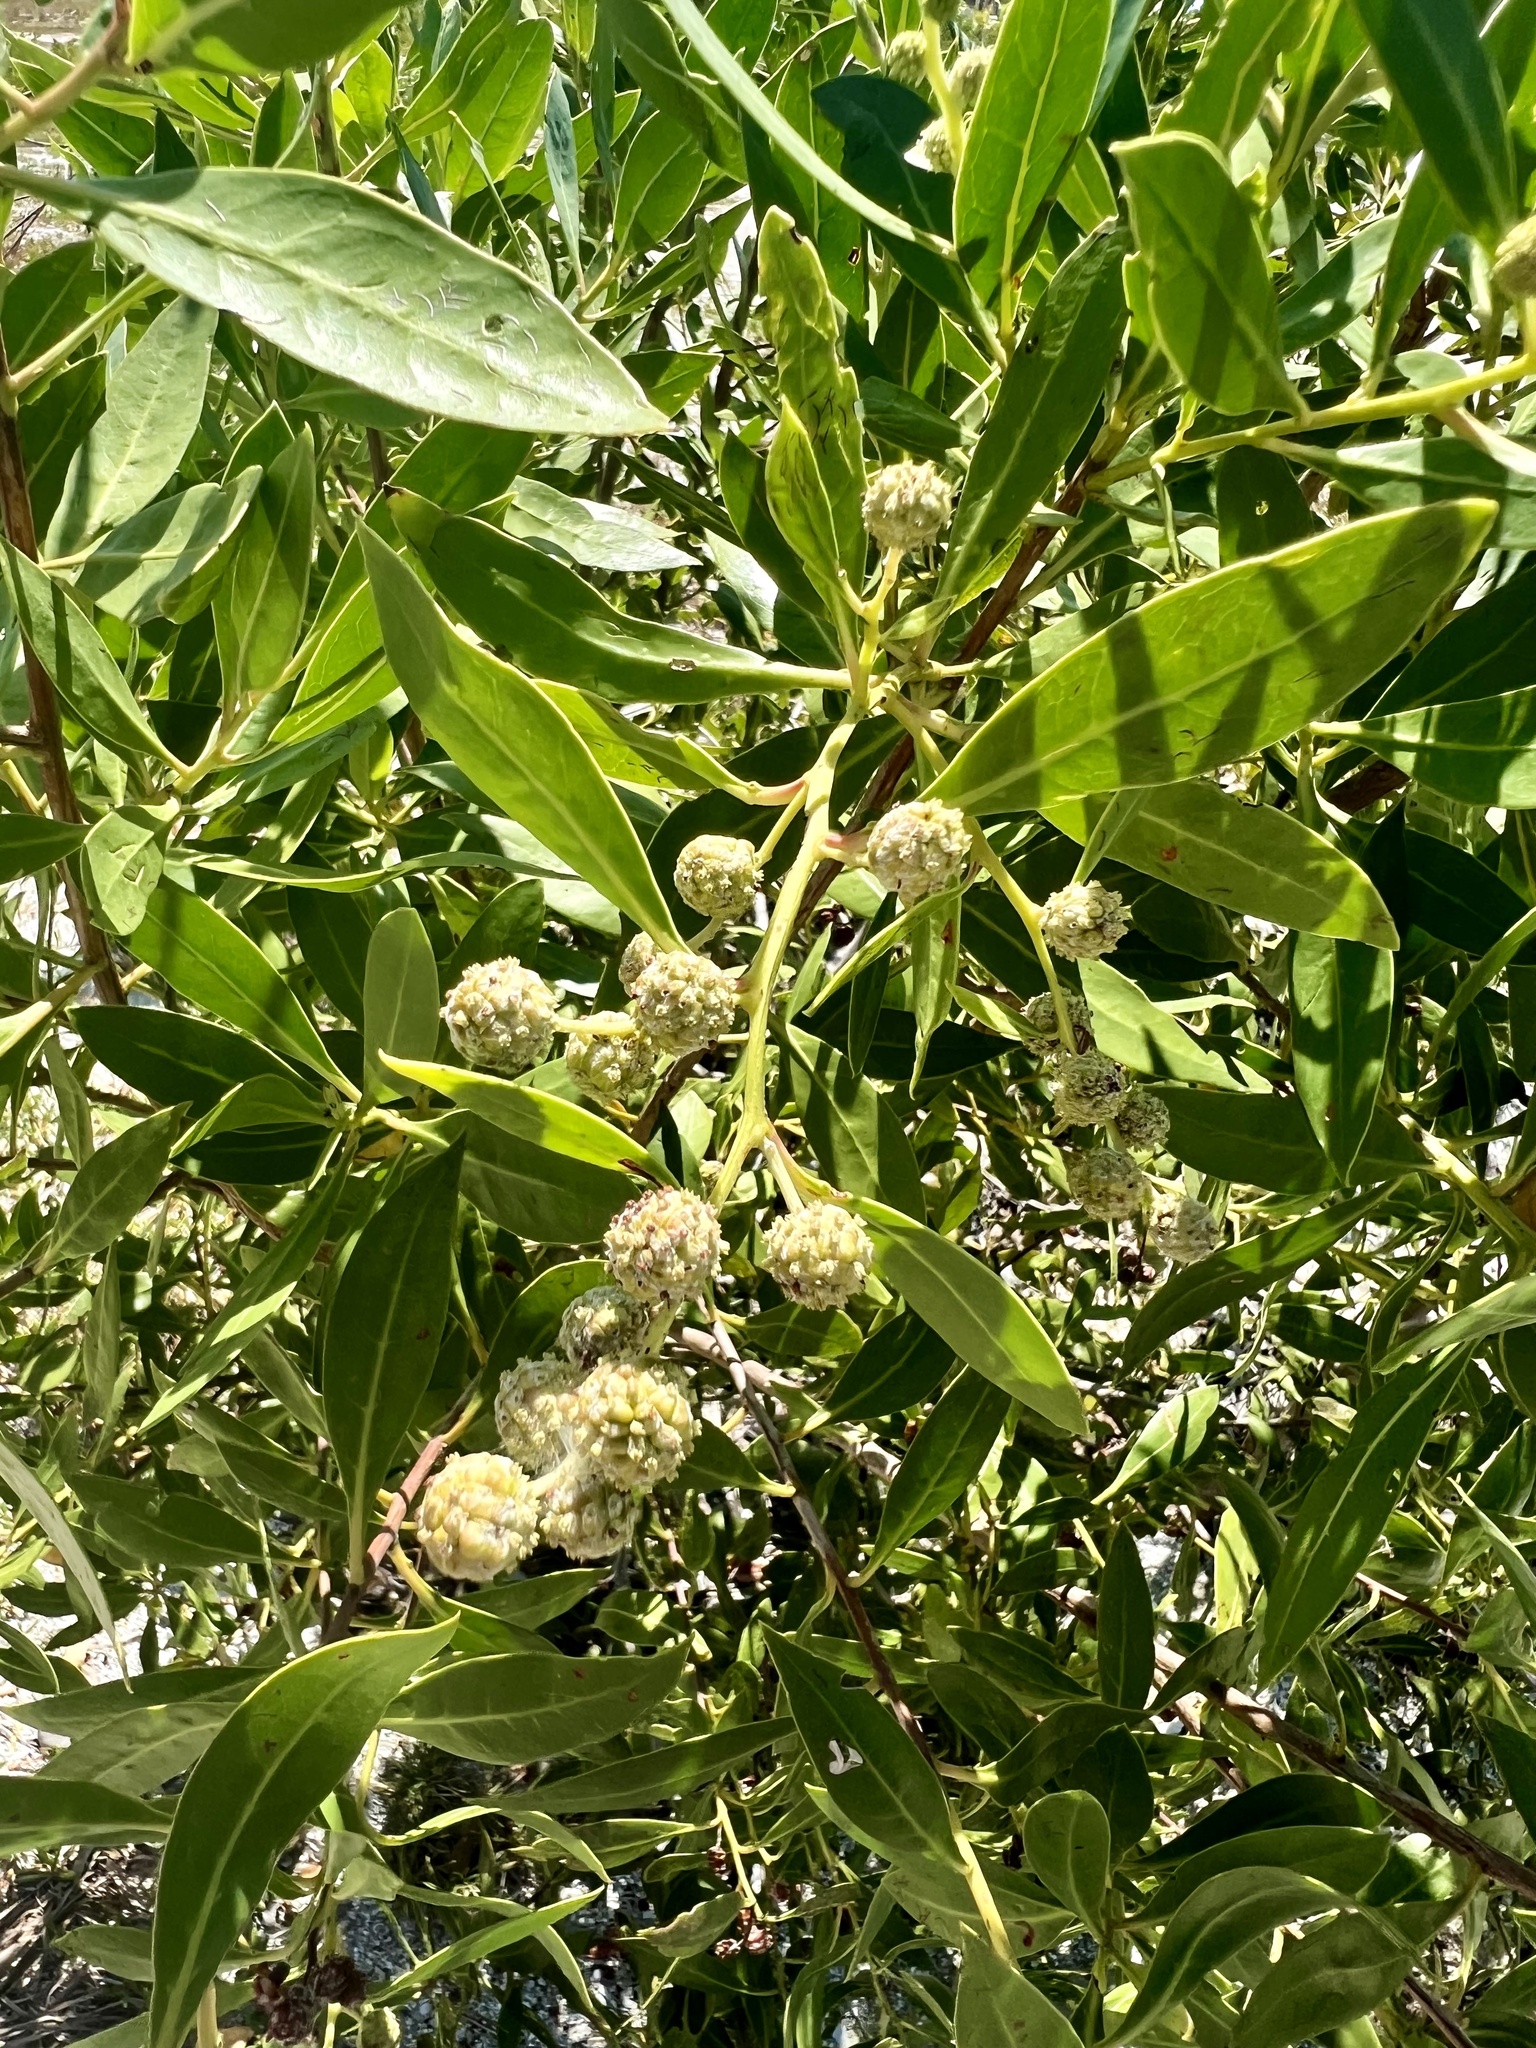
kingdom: Plantae
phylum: Tracheophyta
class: Magnoliopsida
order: Myrtales
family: Combretaceae
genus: Conocarpus
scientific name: Conocarpus erectus
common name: Button mangrove
